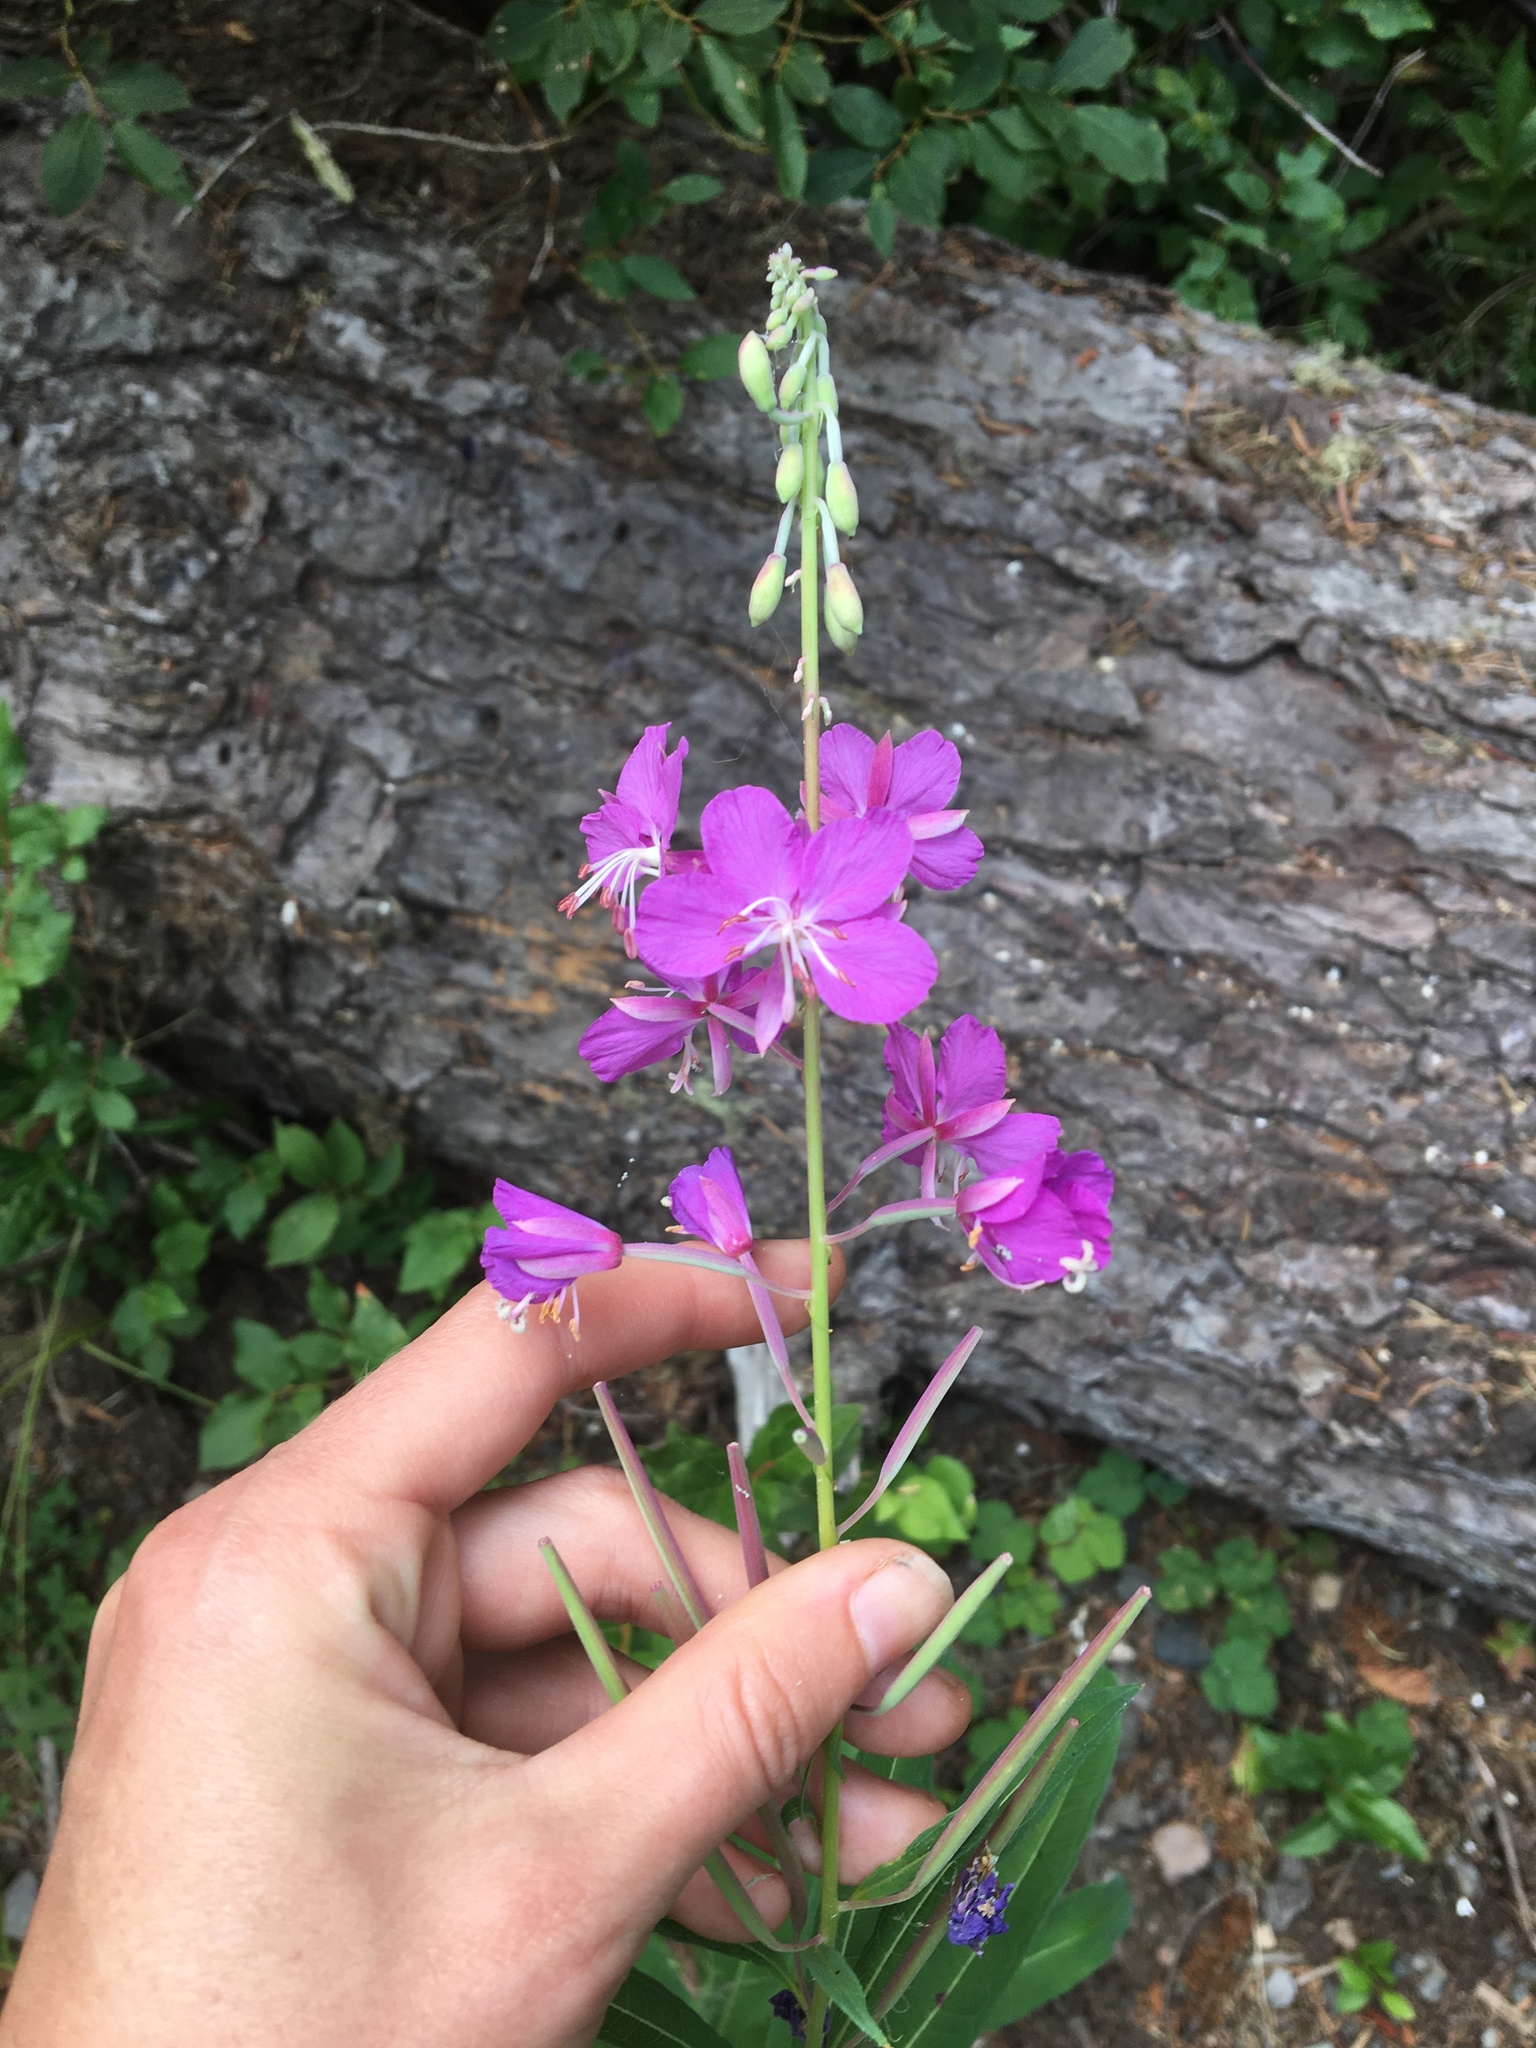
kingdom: Plantae
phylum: Tracheophyta
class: Magnoliopsida
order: Myrtales
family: Onagraceae
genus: Chamaenerion
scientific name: Chamaenerion angustifolium
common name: Fireweed
